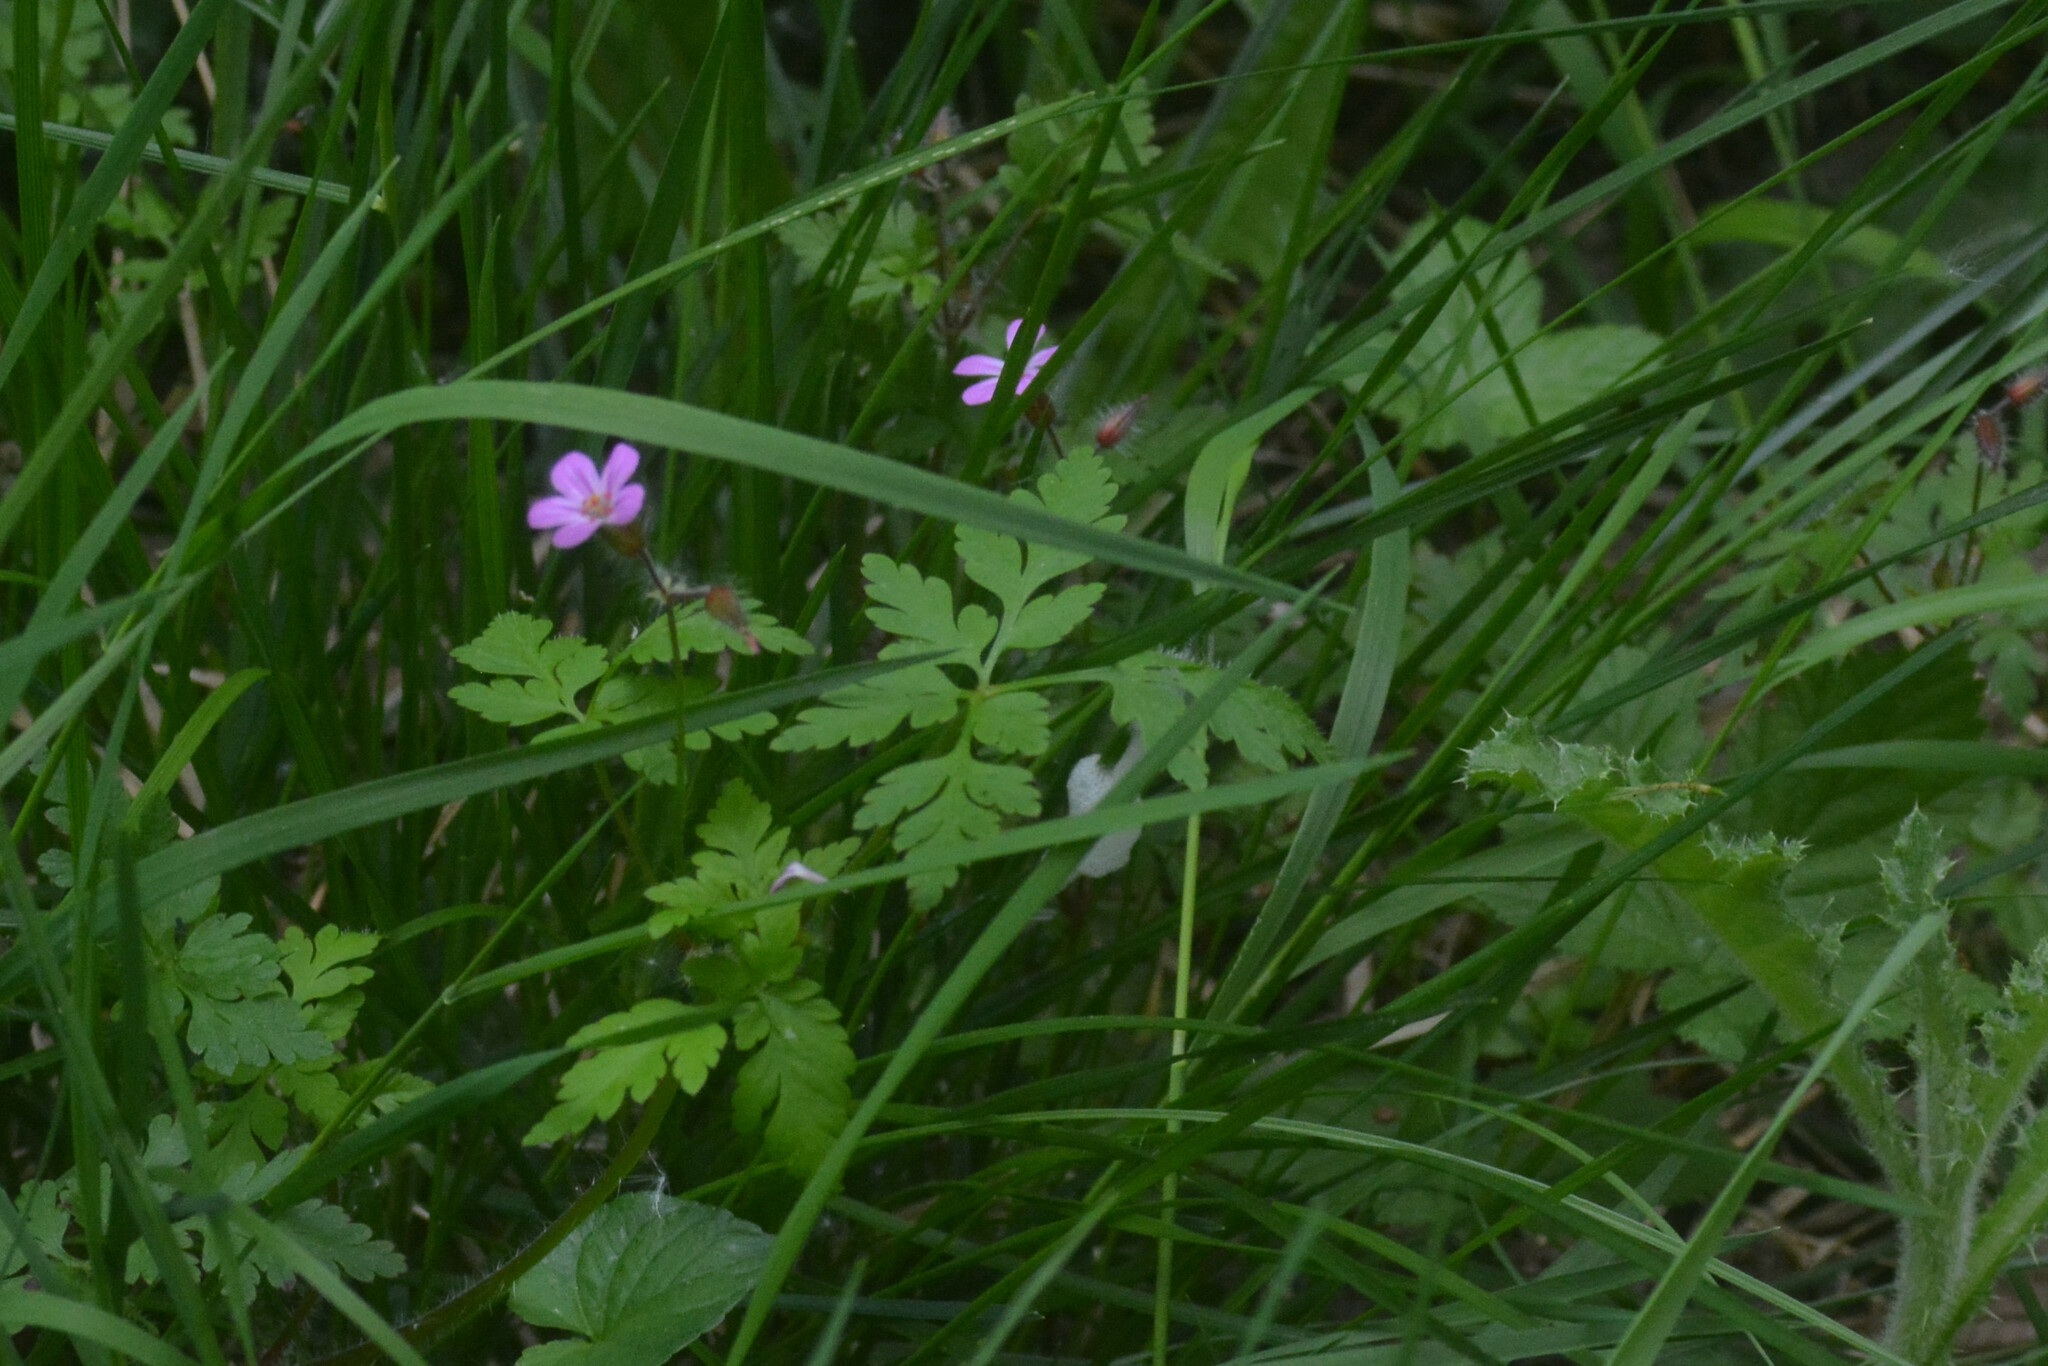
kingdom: Plantae
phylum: Tracheophyta
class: Magnoliopsida
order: Geraniales
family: Geraniaceae
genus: Geranium
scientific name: Geranium robertianum
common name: Herb-robert
